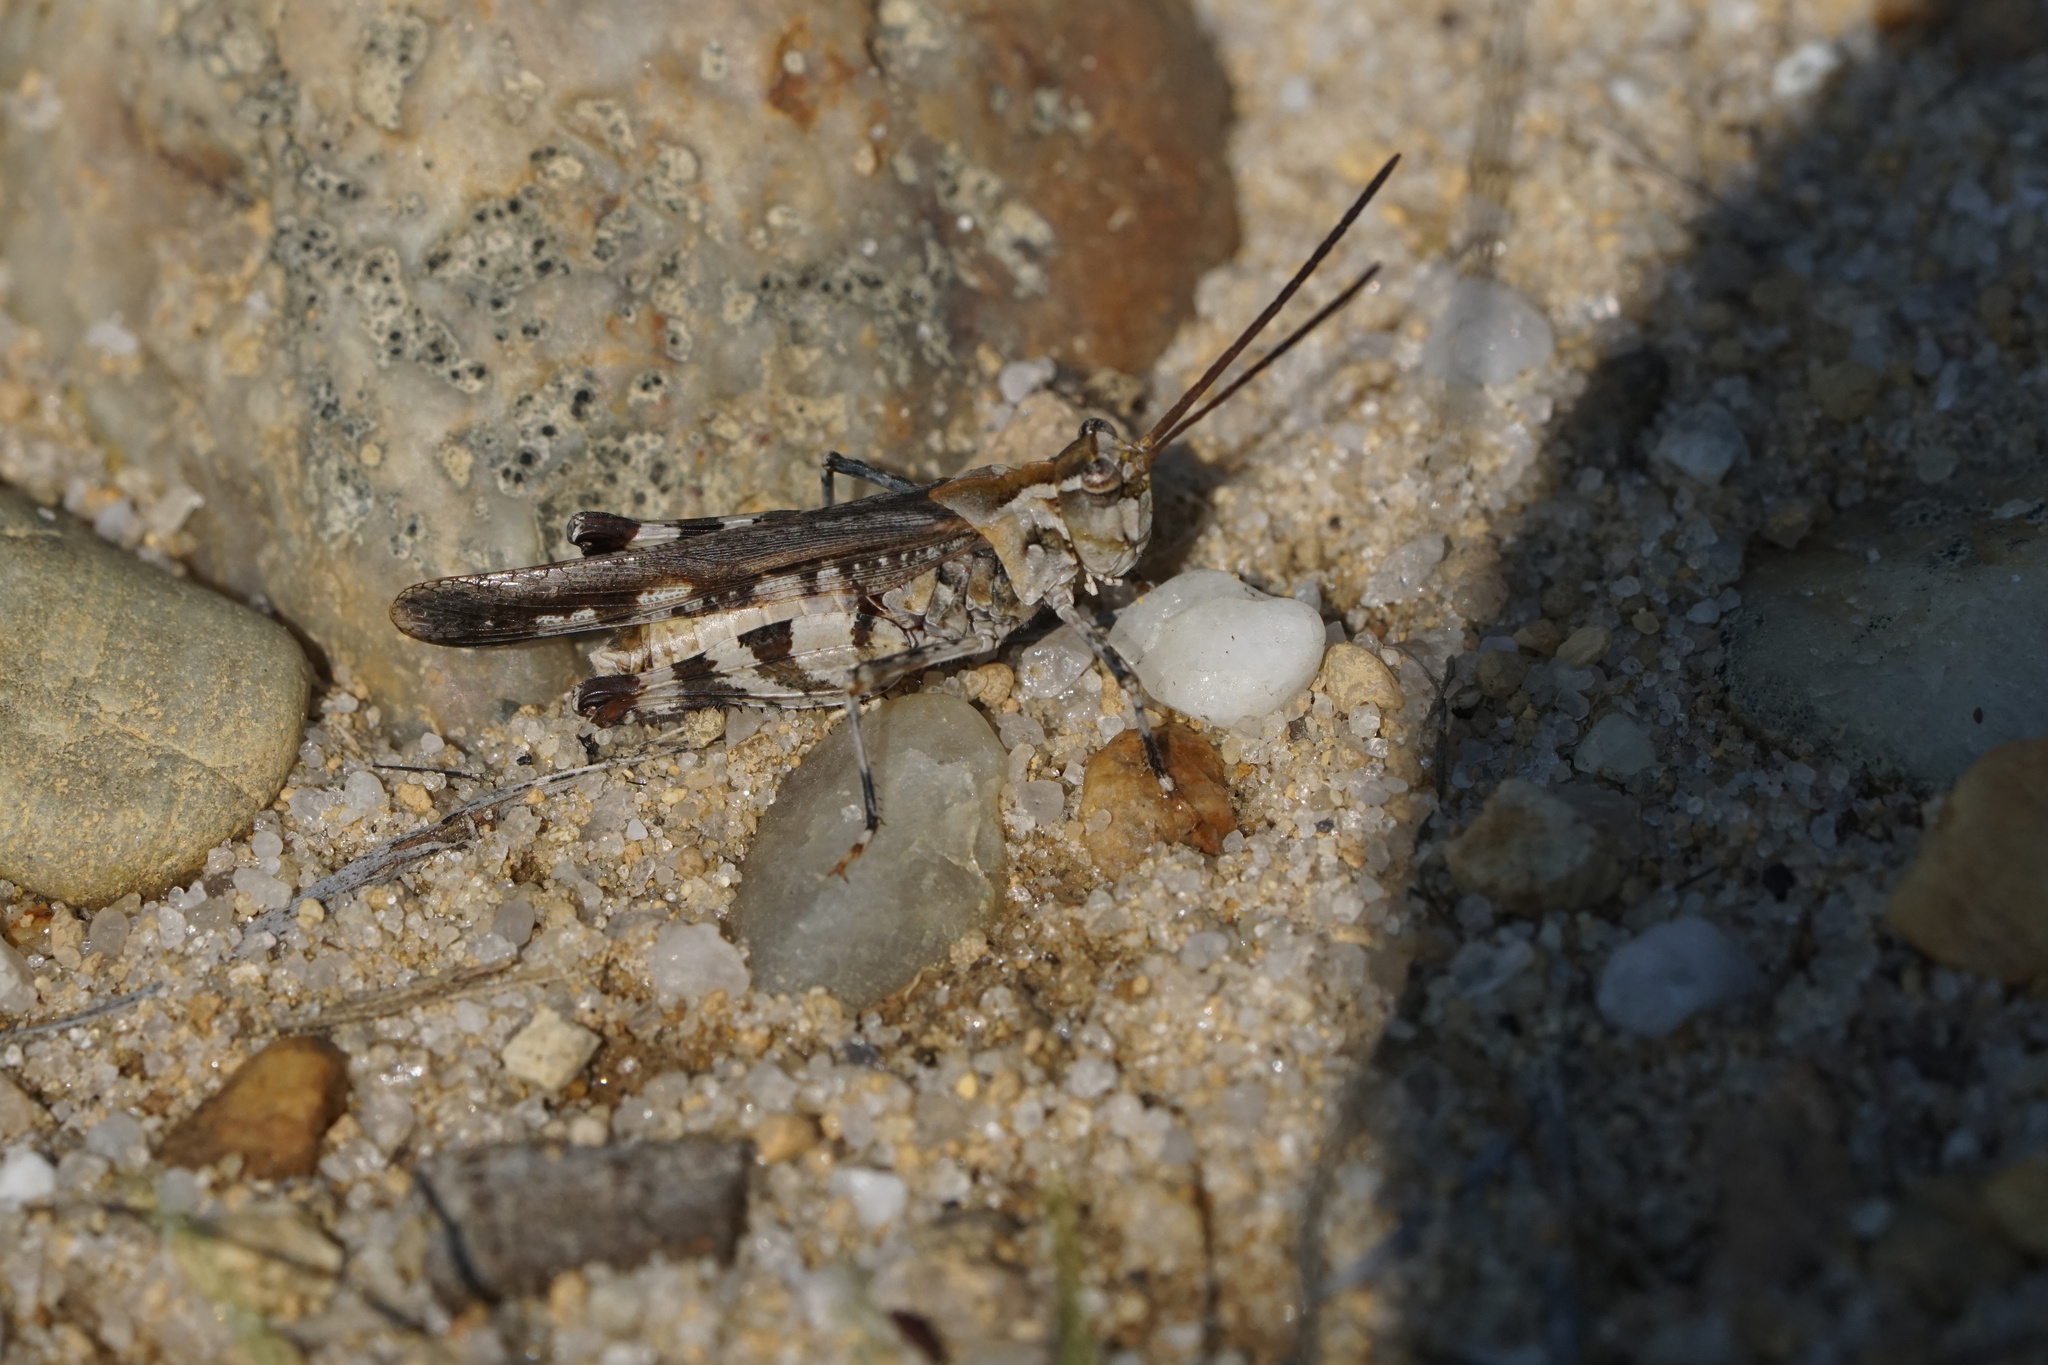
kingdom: Animalia
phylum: Arthropoda
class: Insecta
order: Orthoptera
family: Acrididae
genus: Psinidia
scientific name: Psinidia fenestralis
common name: Long-horned locust
